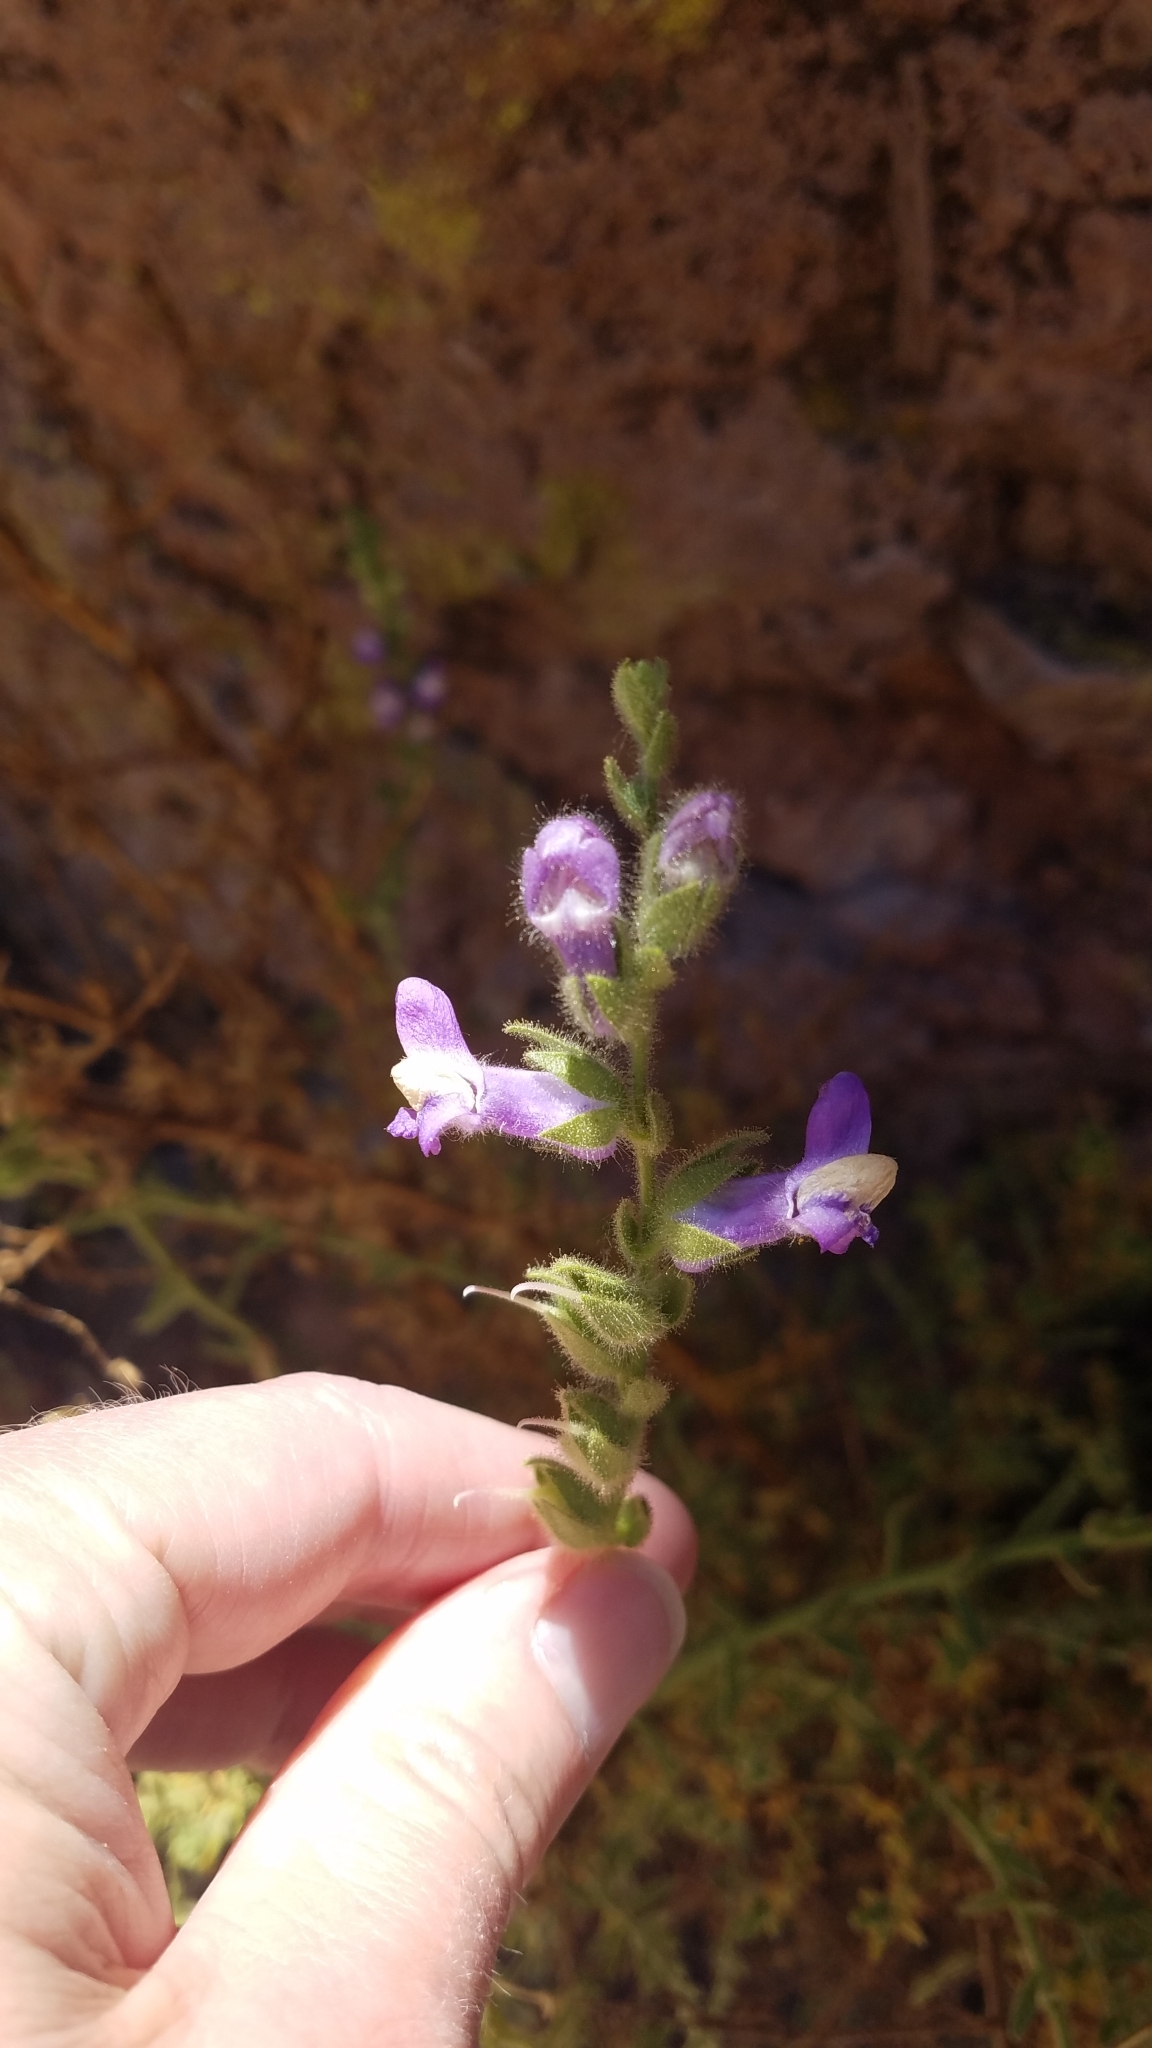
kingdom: Plantae
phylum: Tracheophyta
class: Magnoliopsida
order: Lamiales
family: Plantaginaceae
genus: Sairocarpus
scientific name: Sairocarpus multiflorus
